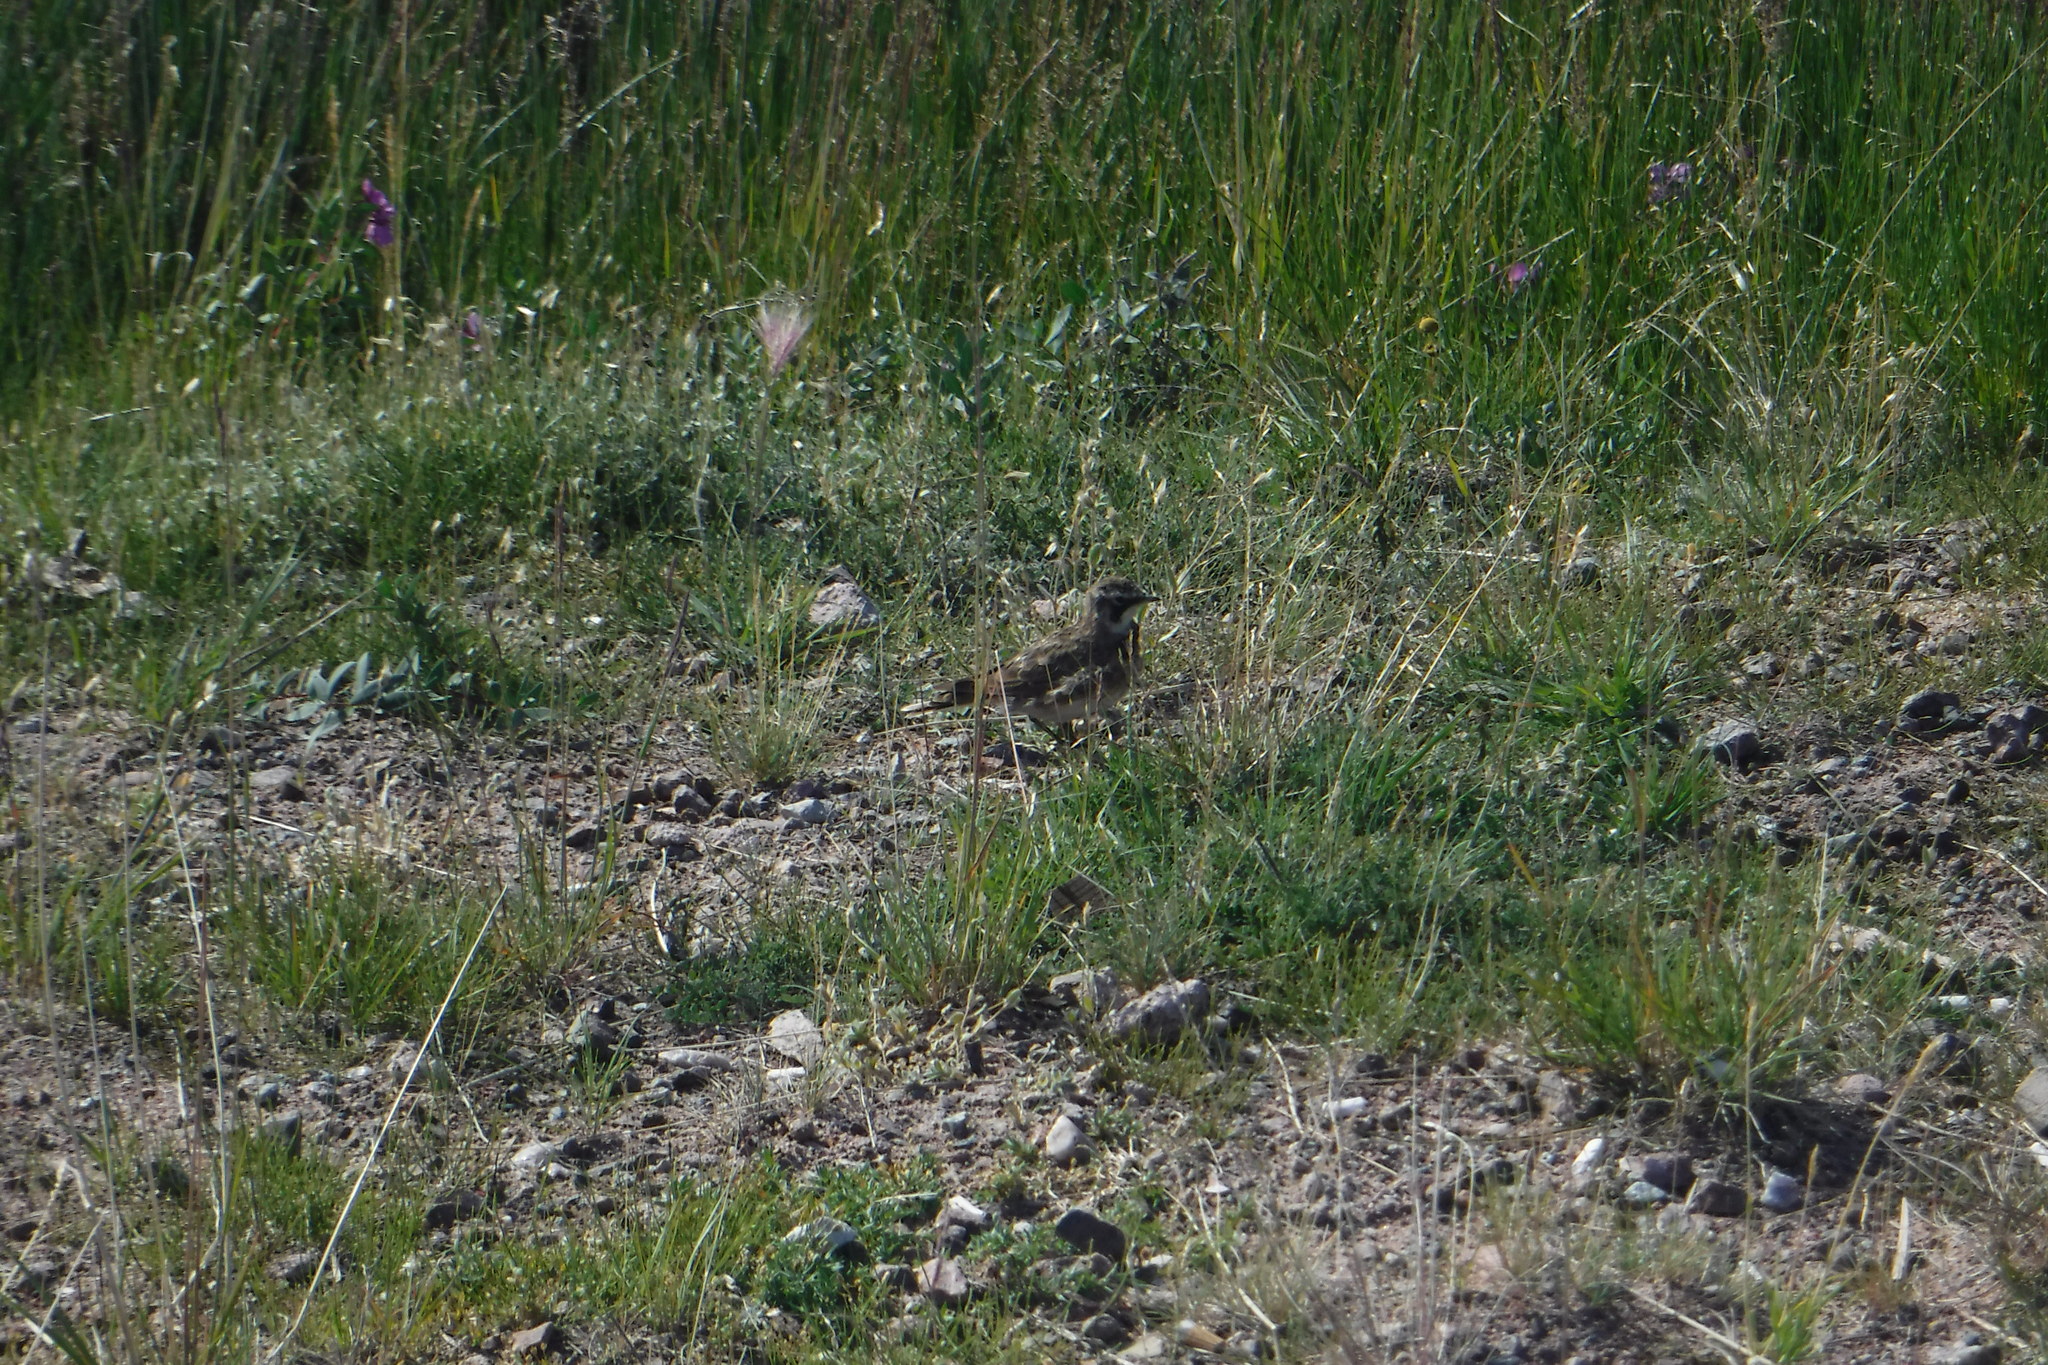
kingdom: Animalia
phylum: Chordata
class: Aves
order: Passeriformes
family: Alaudidae
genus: Eremophila
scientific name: Eremophila alpestris
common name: Horned lark
